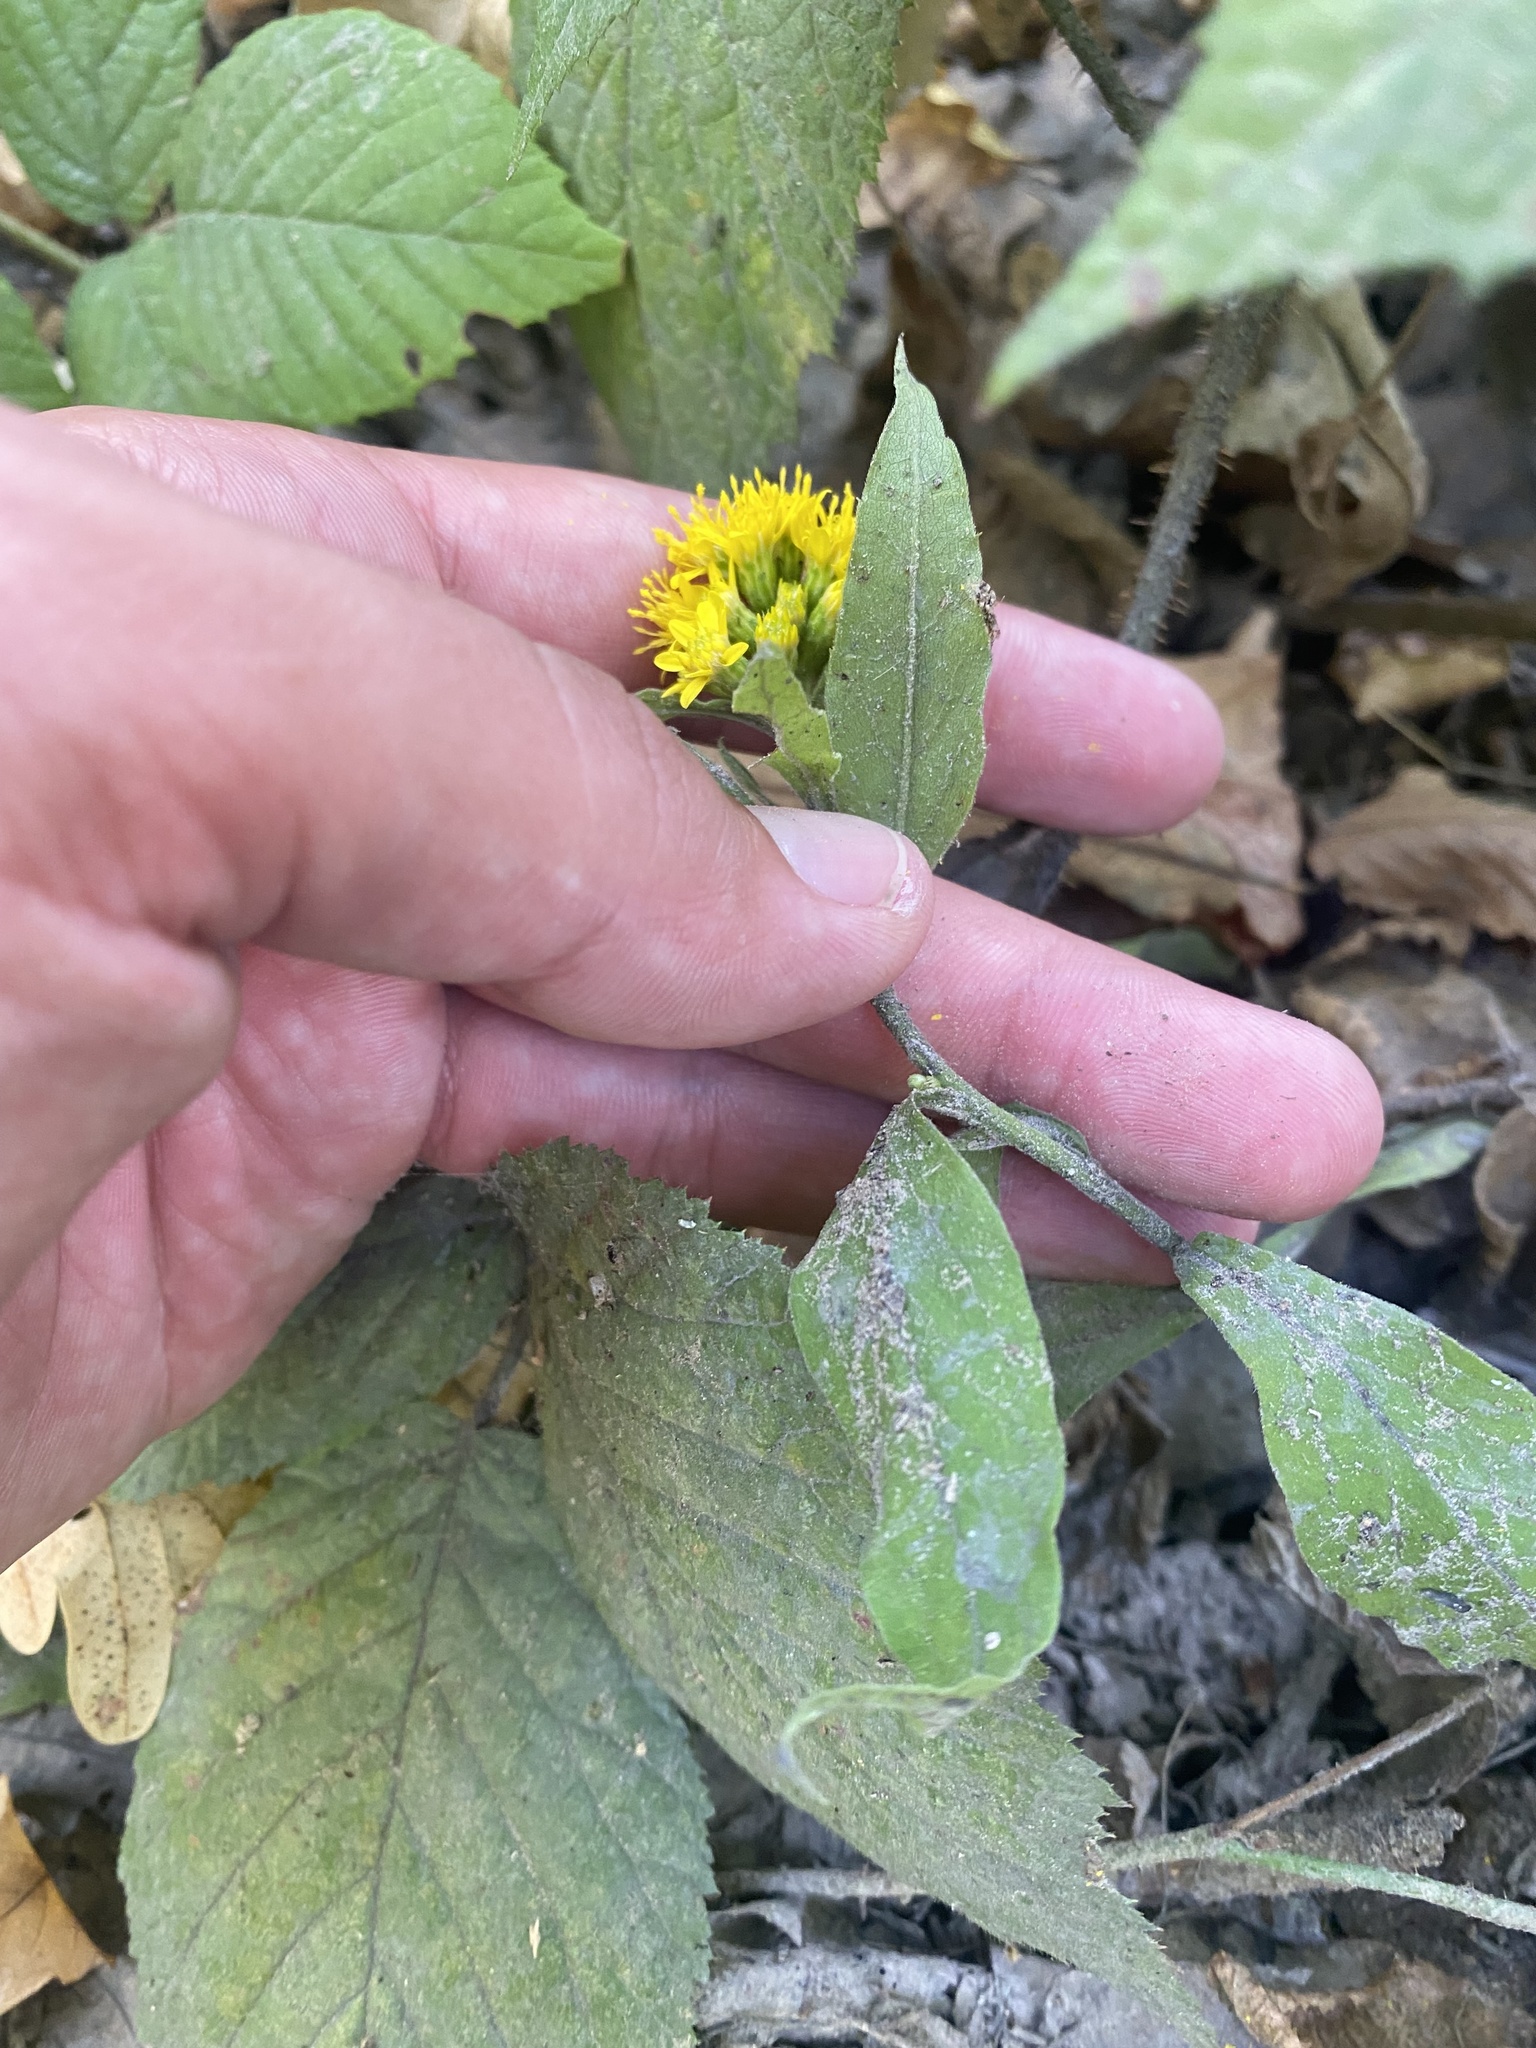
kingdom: Plantae
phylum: Tracheophyta
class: Magnoliopsida
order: Asterales
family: Asteraceae
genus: Solidago
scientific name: Solidago virgaurea
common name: Goldenrod
